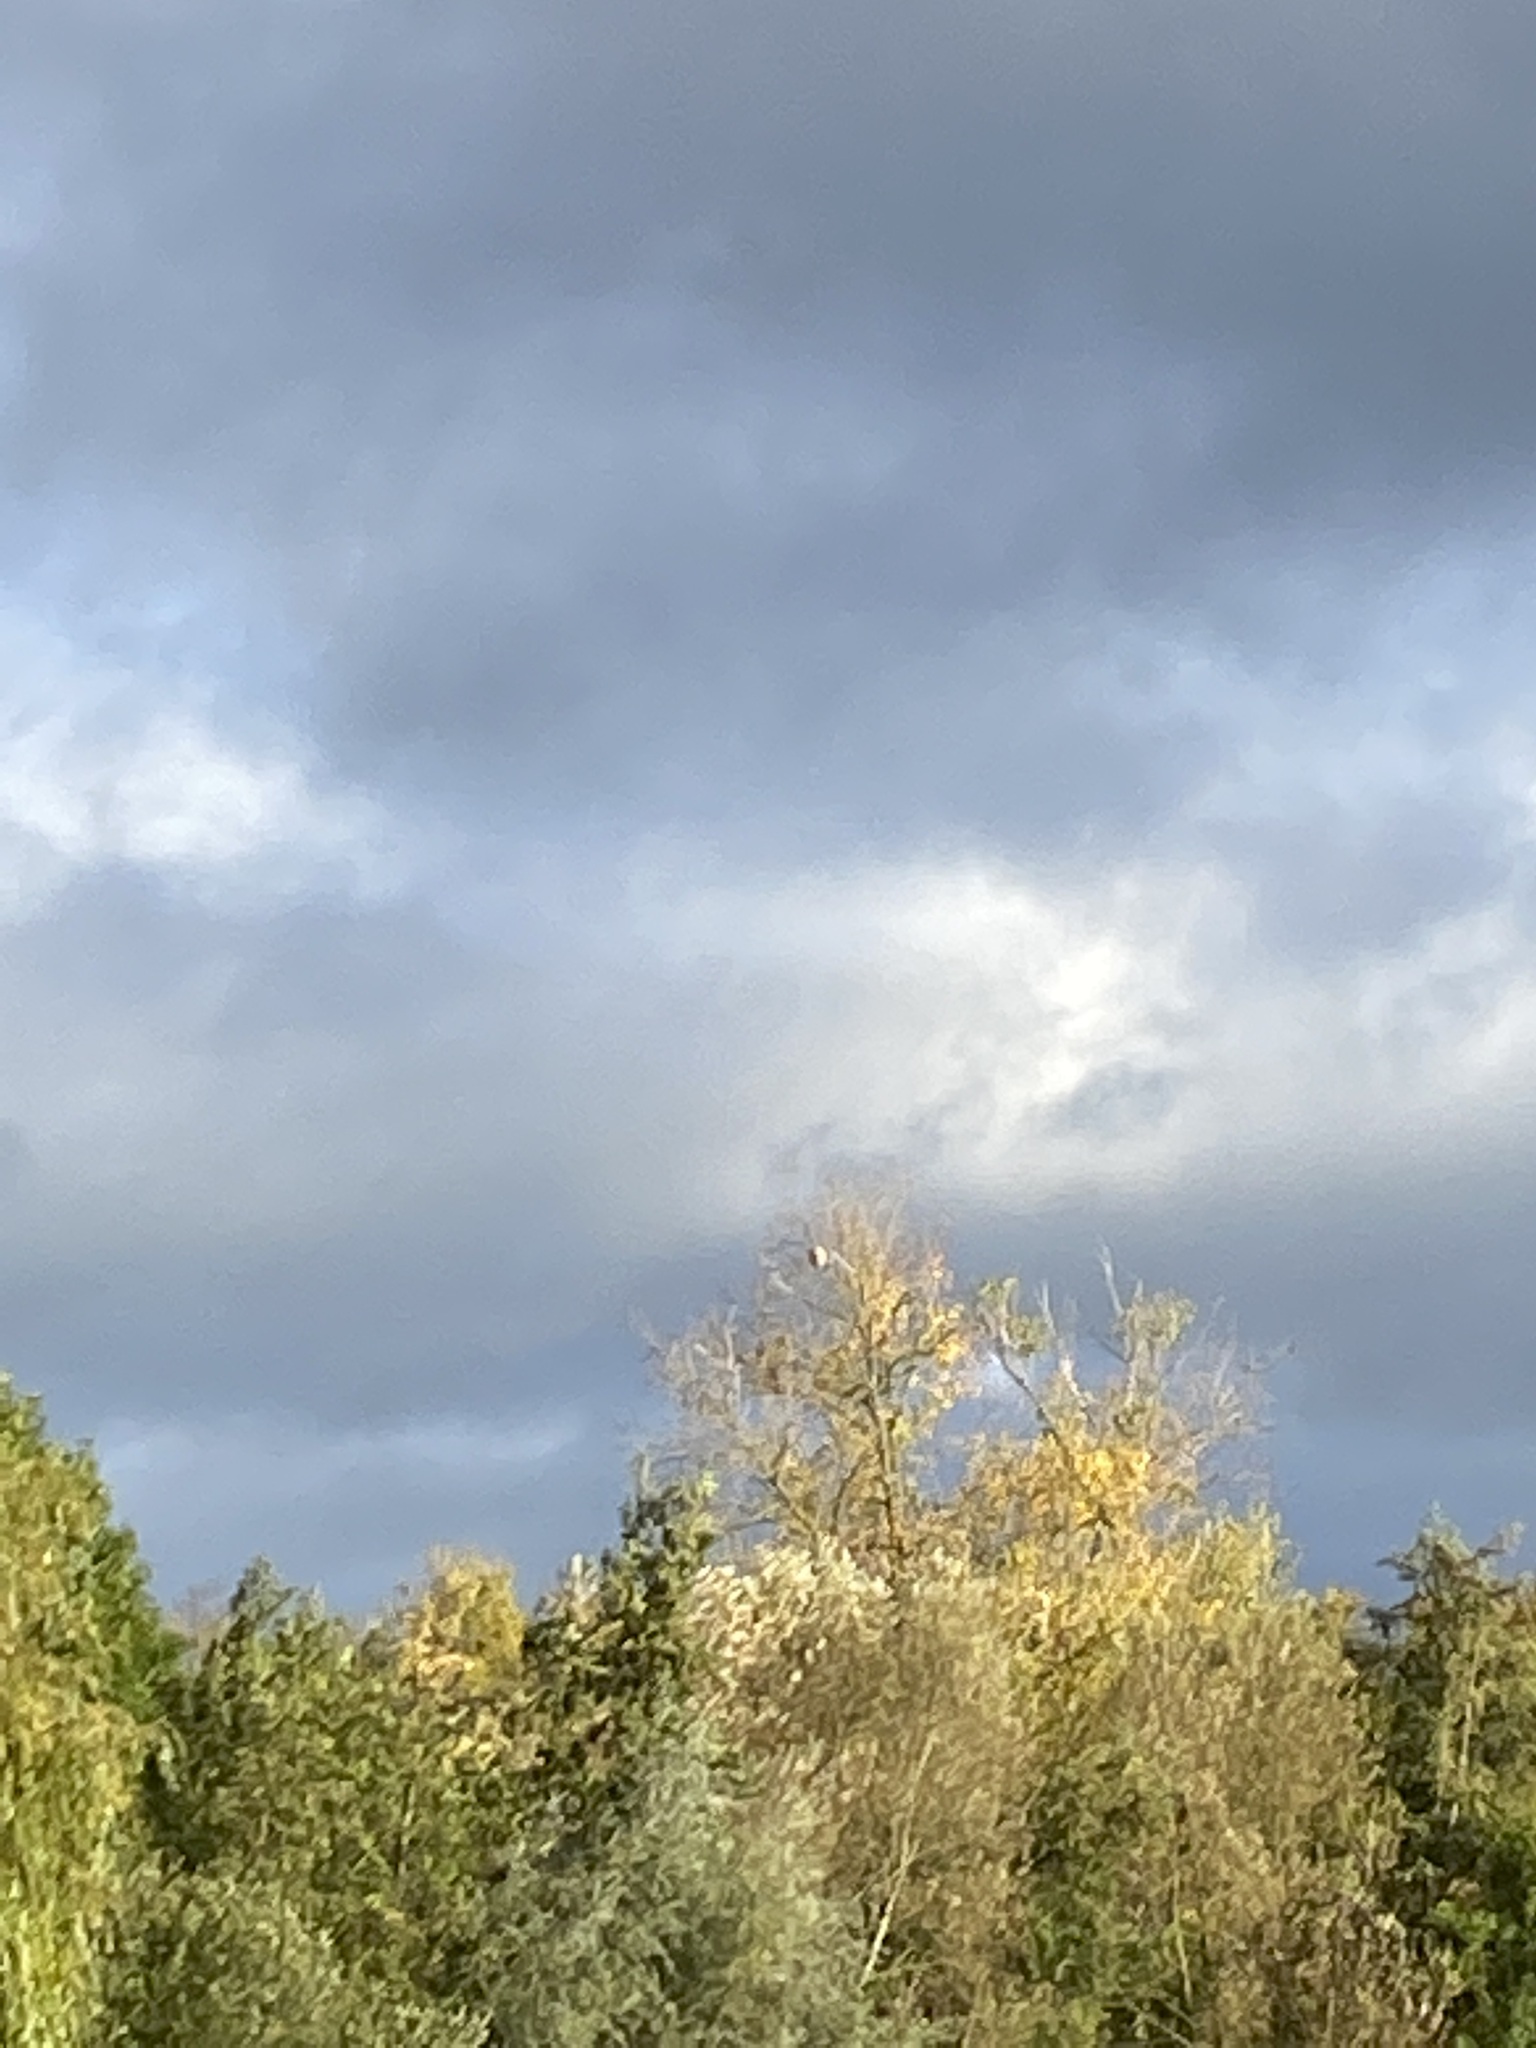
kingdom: Animalia
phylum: Arthropoda
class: Insecta
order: Hymenoptera
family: Vespidae
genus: Vespa
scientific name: Vespa velutina
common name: Asian hornet
